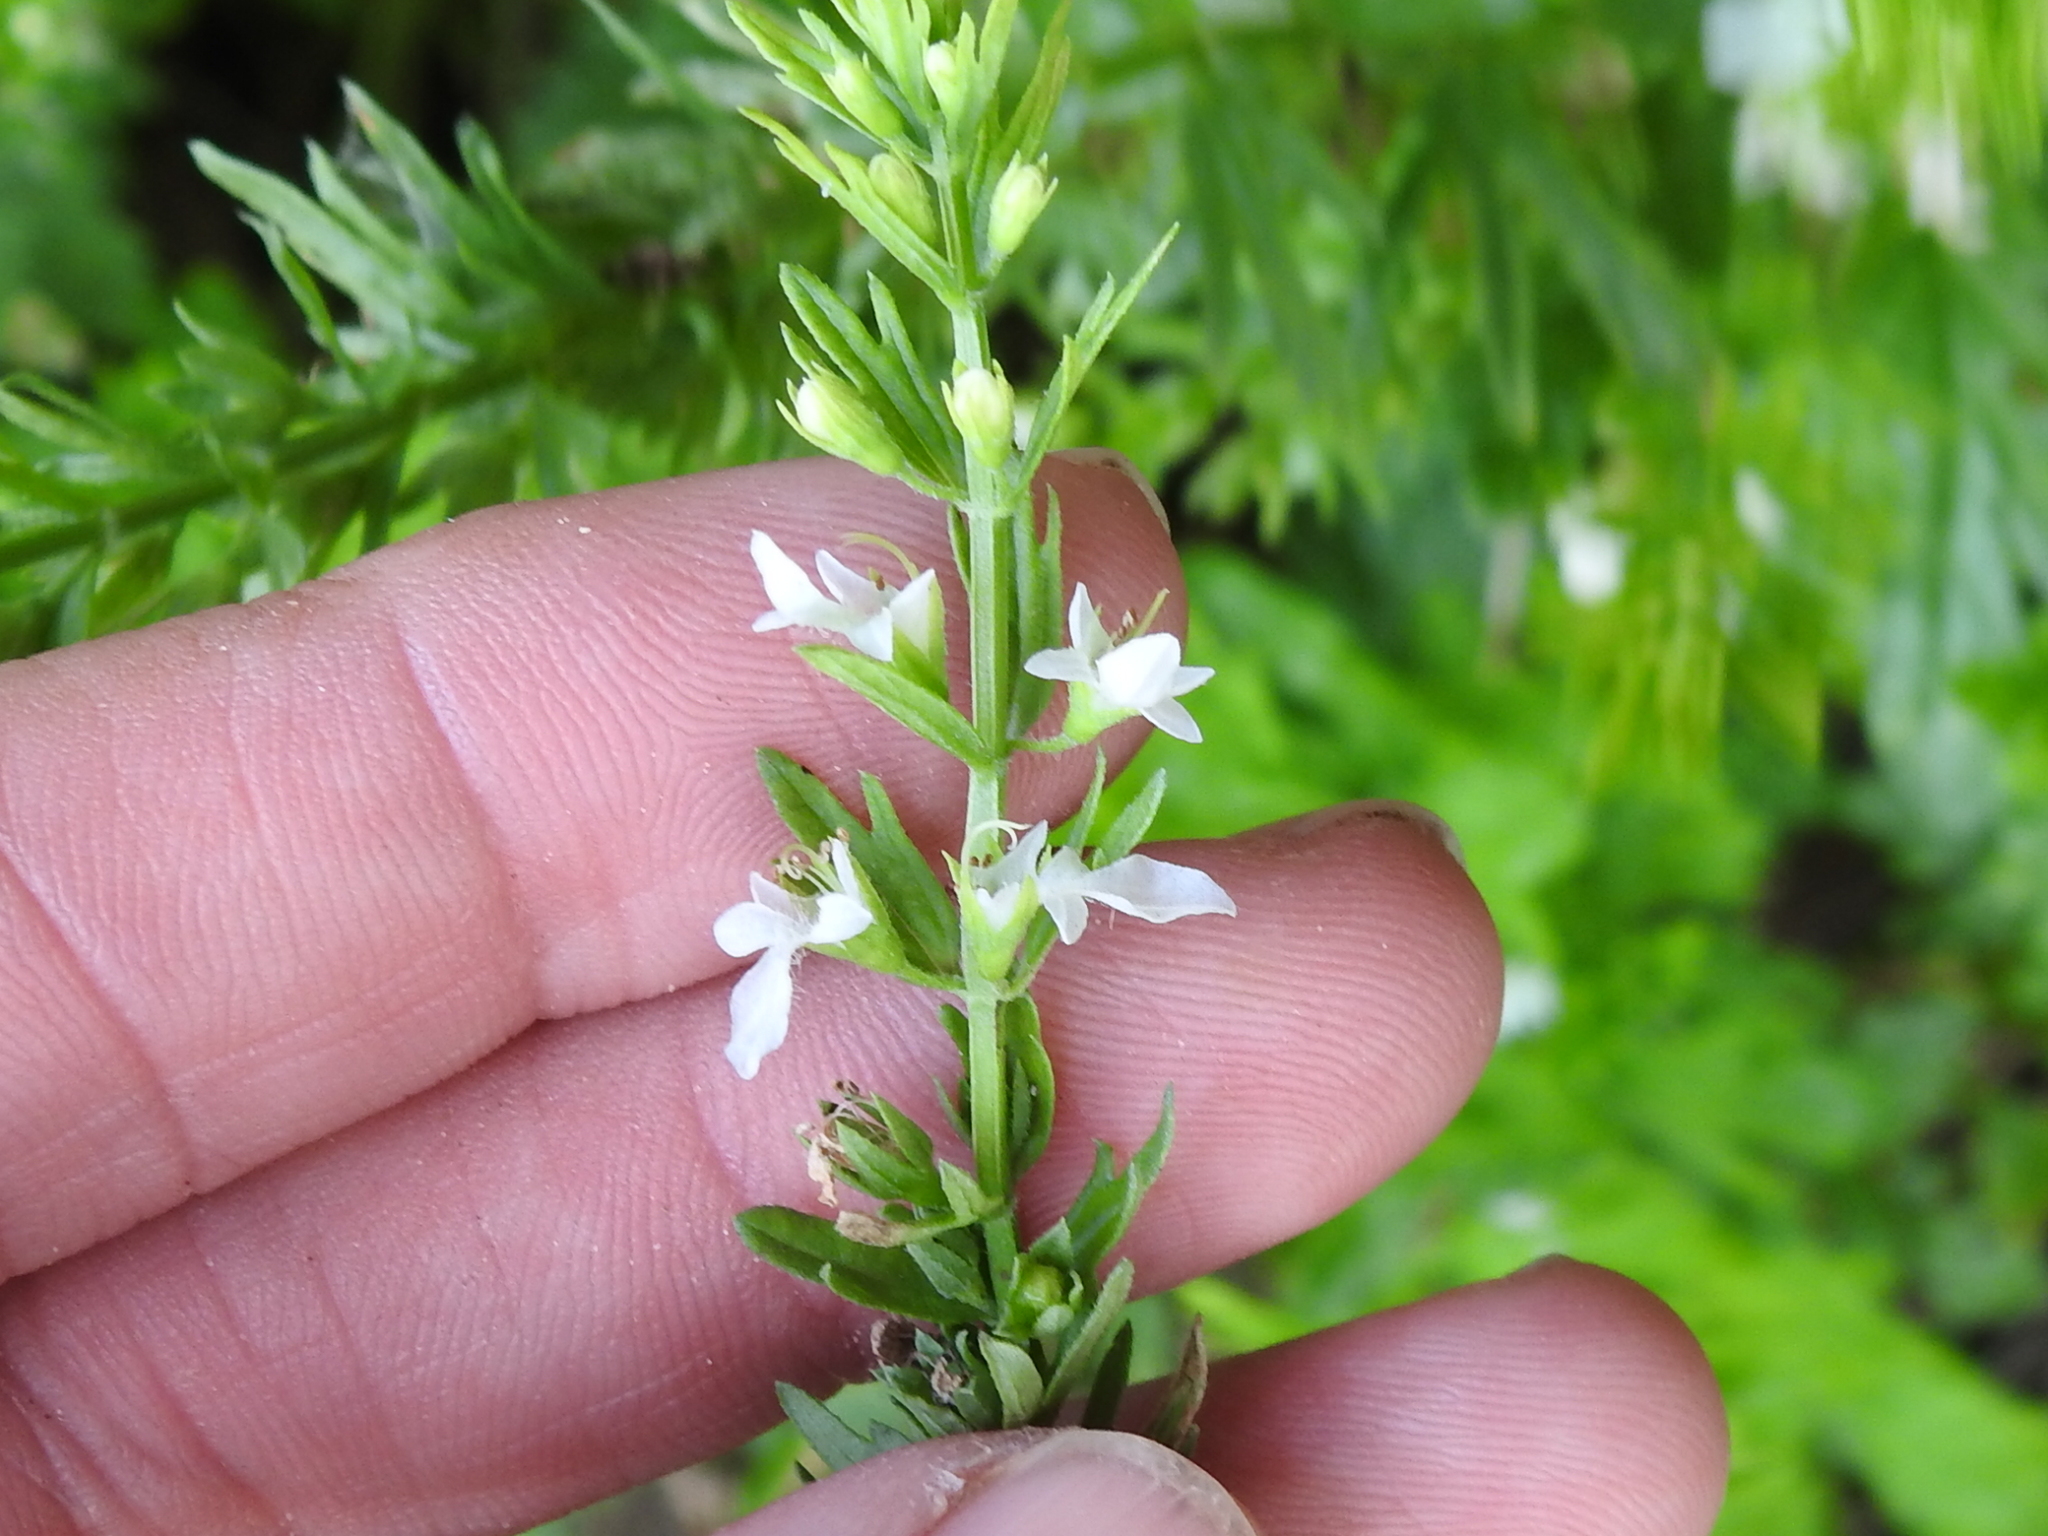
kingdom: Plantae
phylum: Tracheophyta
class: Magnoliopsida
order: Lamiales
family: Lamiaceae
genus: Teucrium
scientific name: Teucrium cubense
